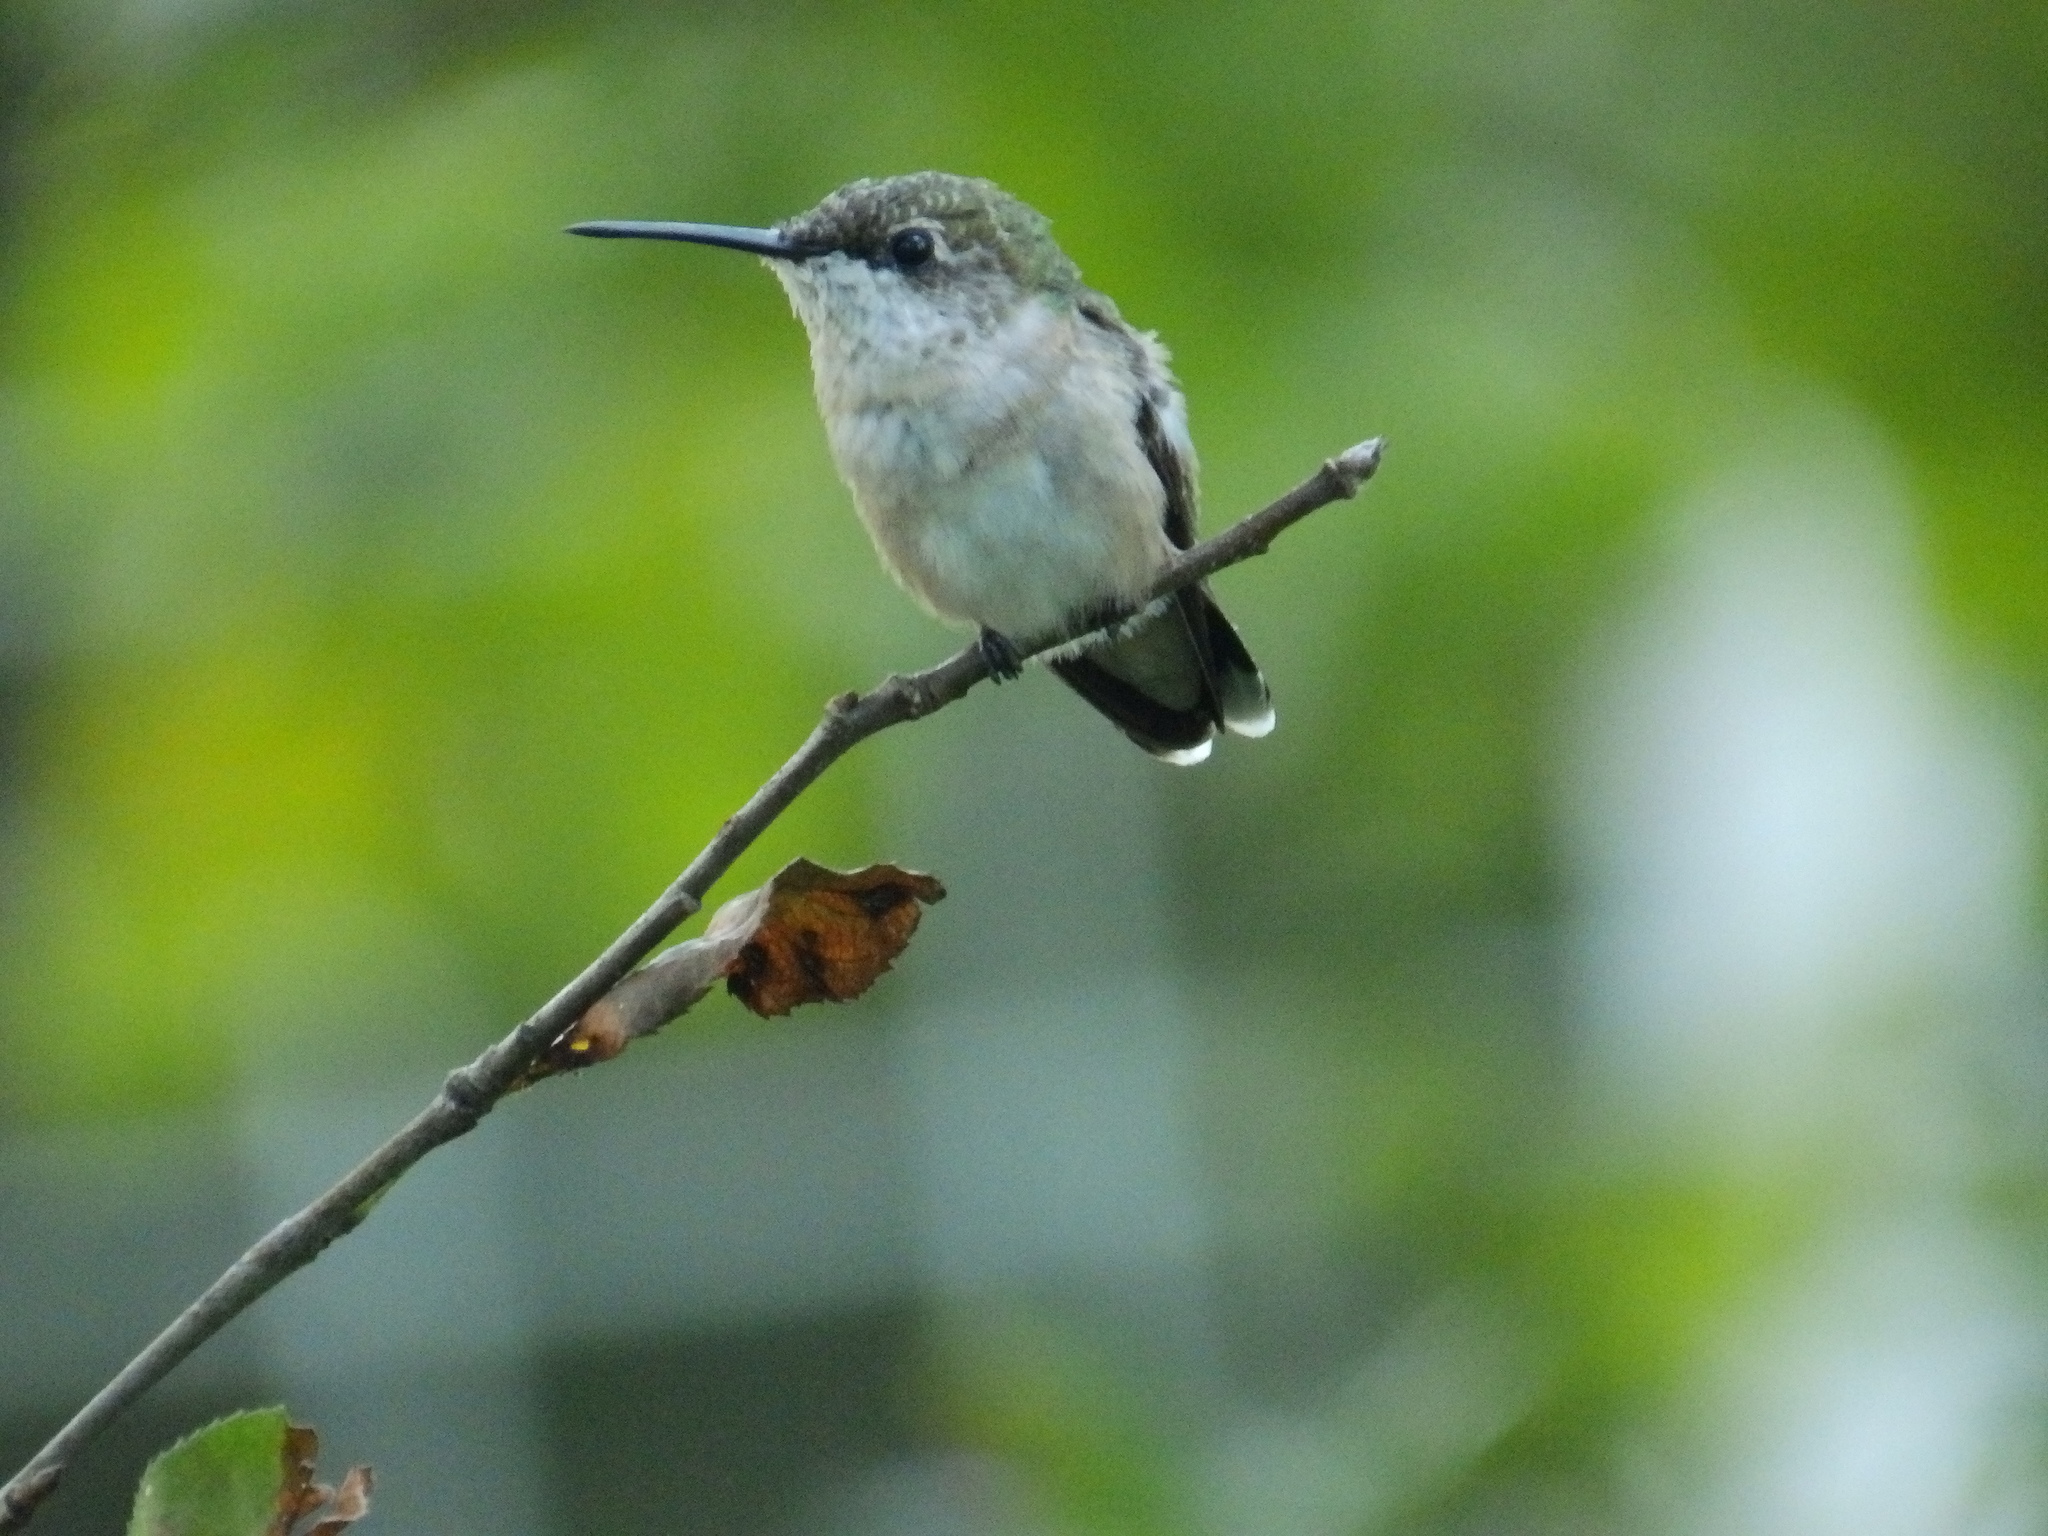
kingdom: Animalia
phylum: Chordata
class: Aves
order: Apodiformes
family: Trochilidae
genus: Archilochus
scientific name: Archilochus colubris
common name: Ruby-throated hummingbird
